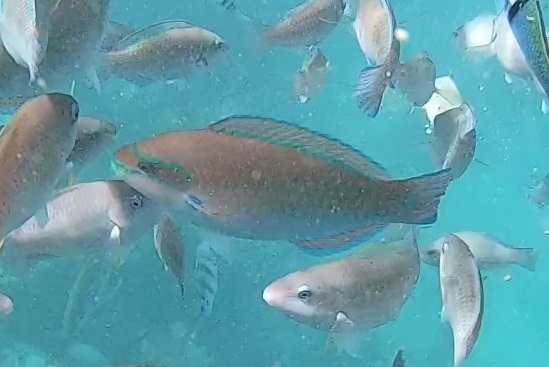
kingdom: Animalia
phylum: Chordata
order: Perciformes
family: Scaridae
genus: Scarus
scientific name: Scarus iseri
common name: Striped parrotfish
